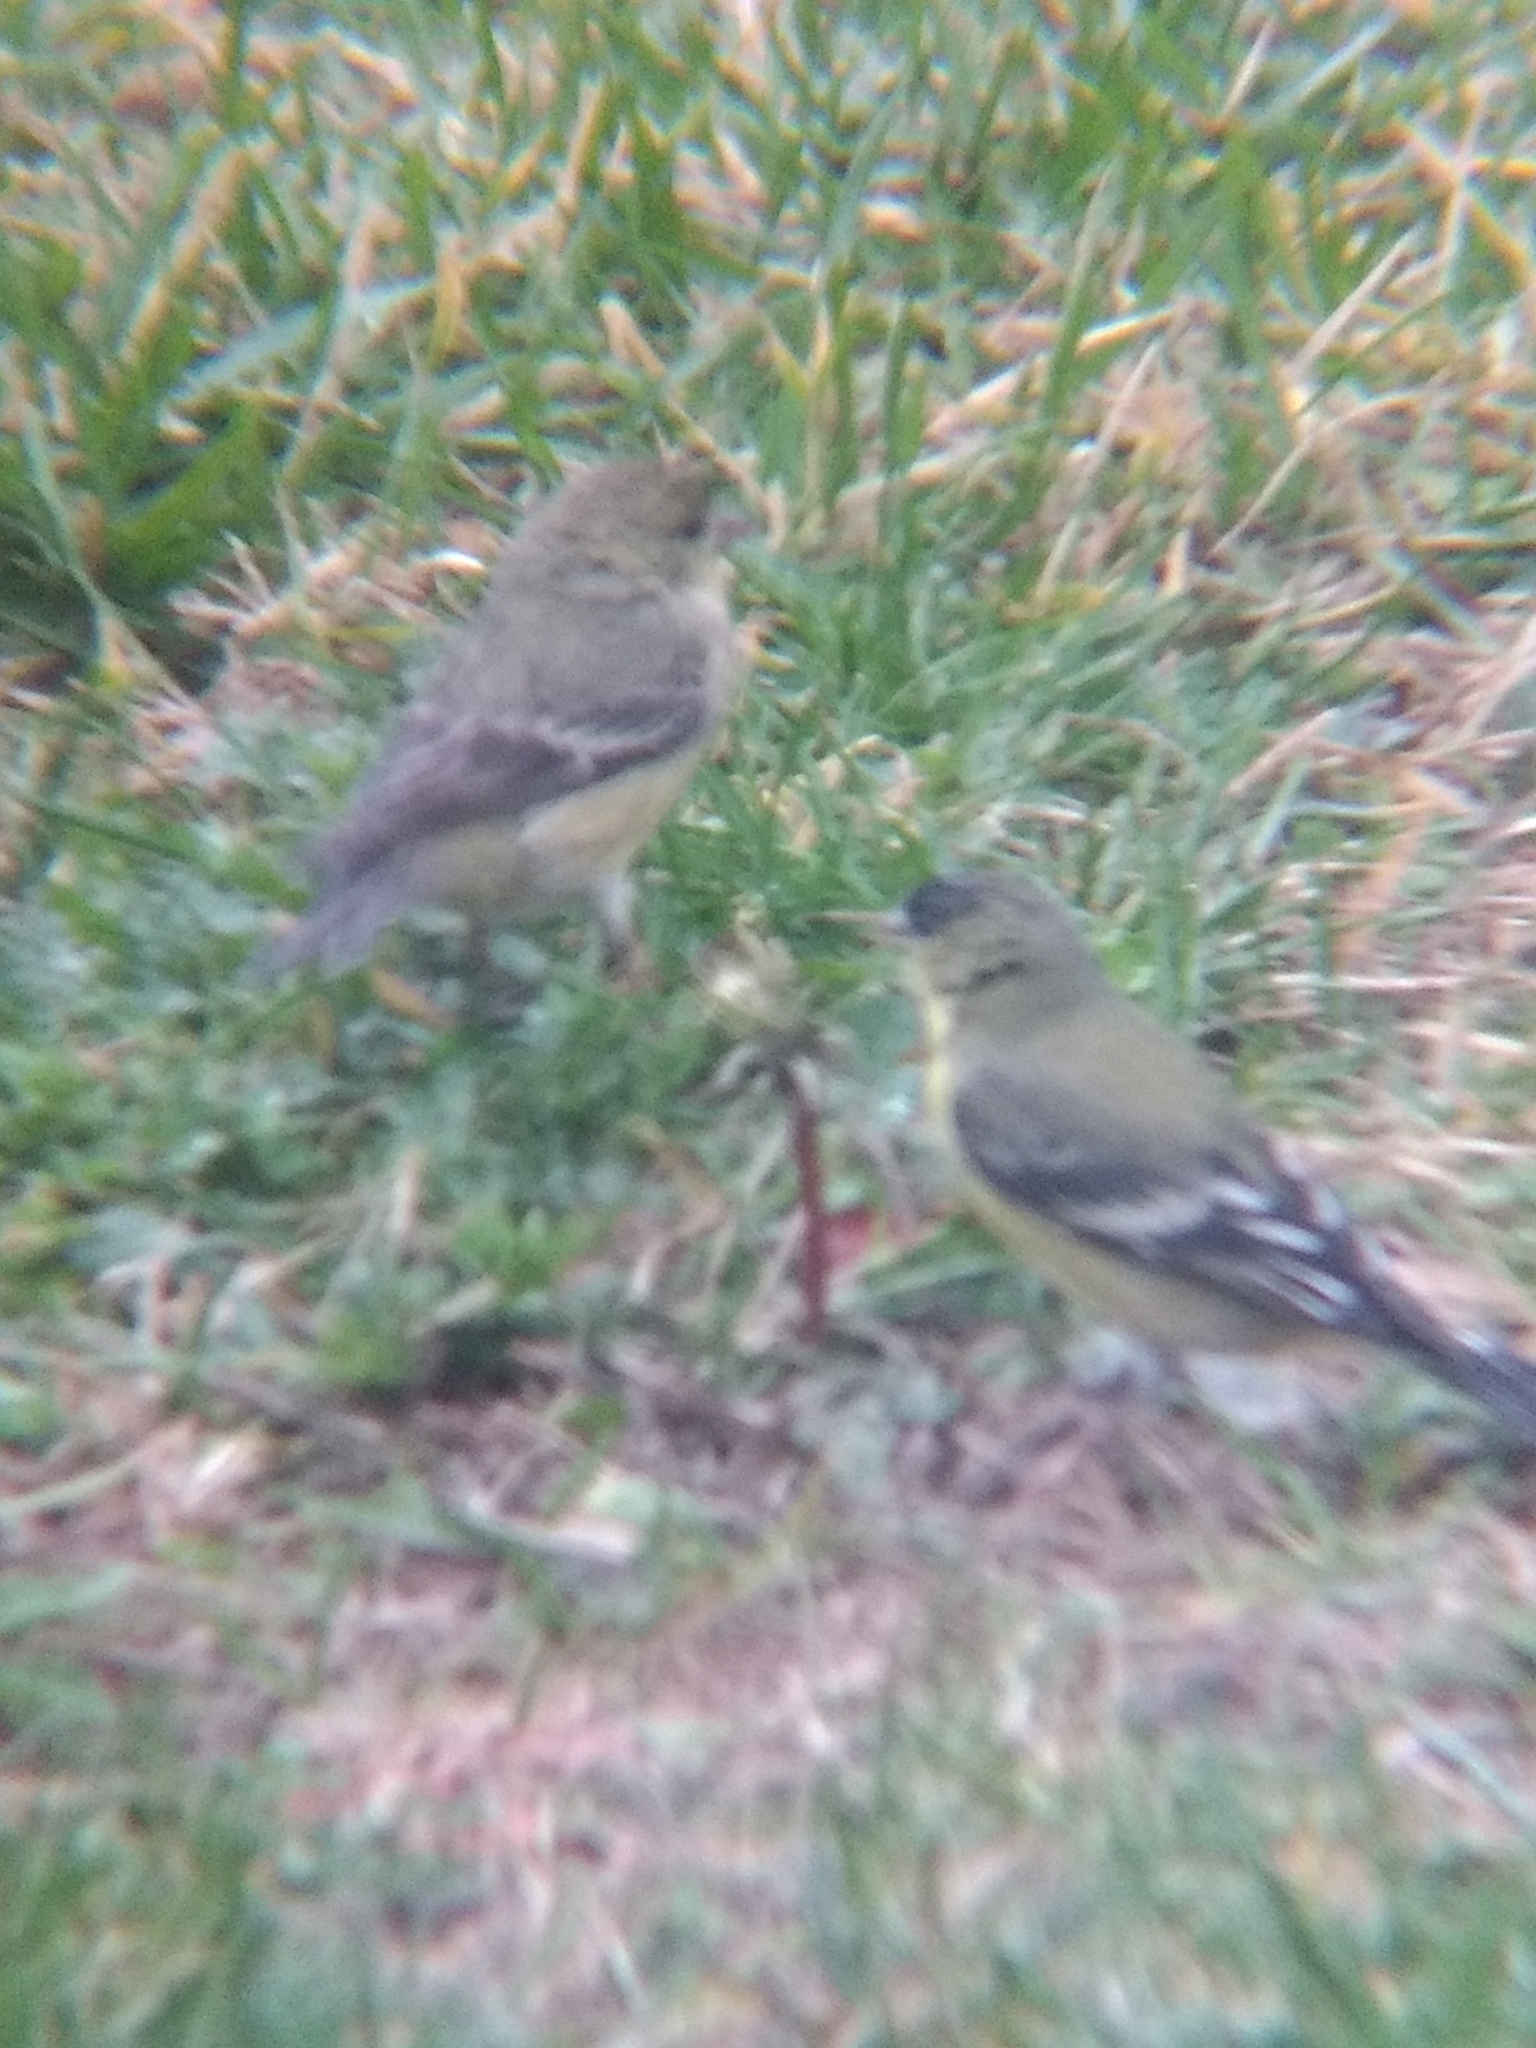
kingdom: Animalia
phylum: Chordata
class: Aves
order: Passeriformes
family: Fringillidae
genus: Spinus
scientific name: Spinus psaltria
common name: Lesser goldfinch
